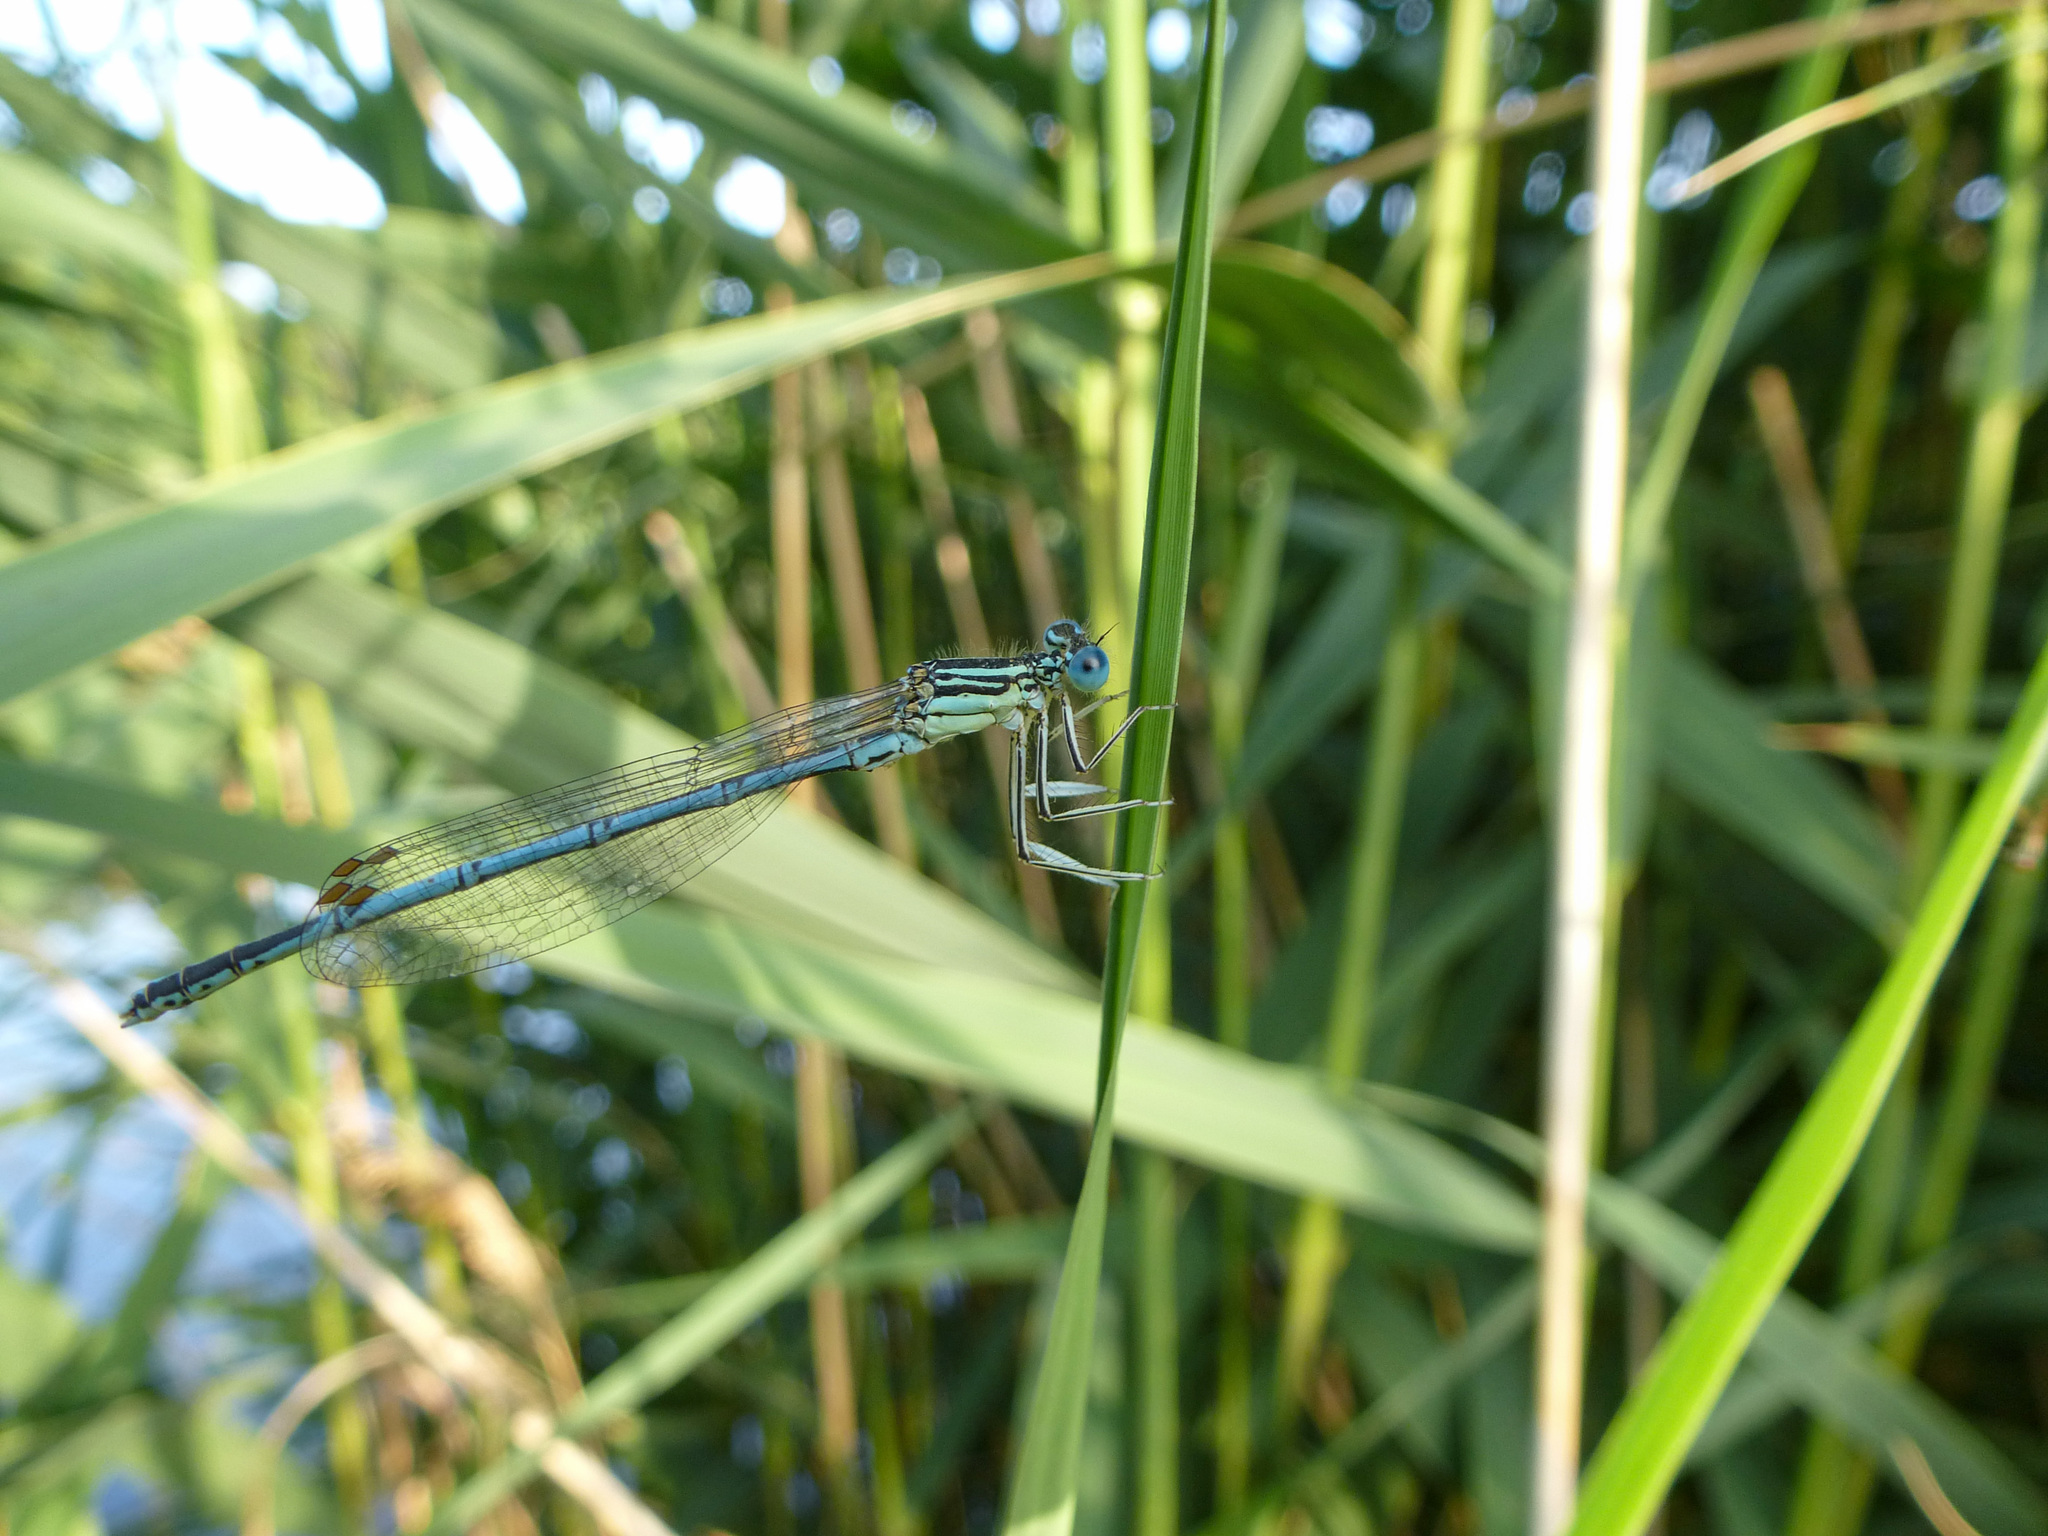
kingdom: Animalia
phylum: Arthropoda
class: Insecta
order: Odonata
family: Platycnemididae
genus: Platycnemis
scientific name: Platycnemis pennipes
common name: White-legged damselfly
